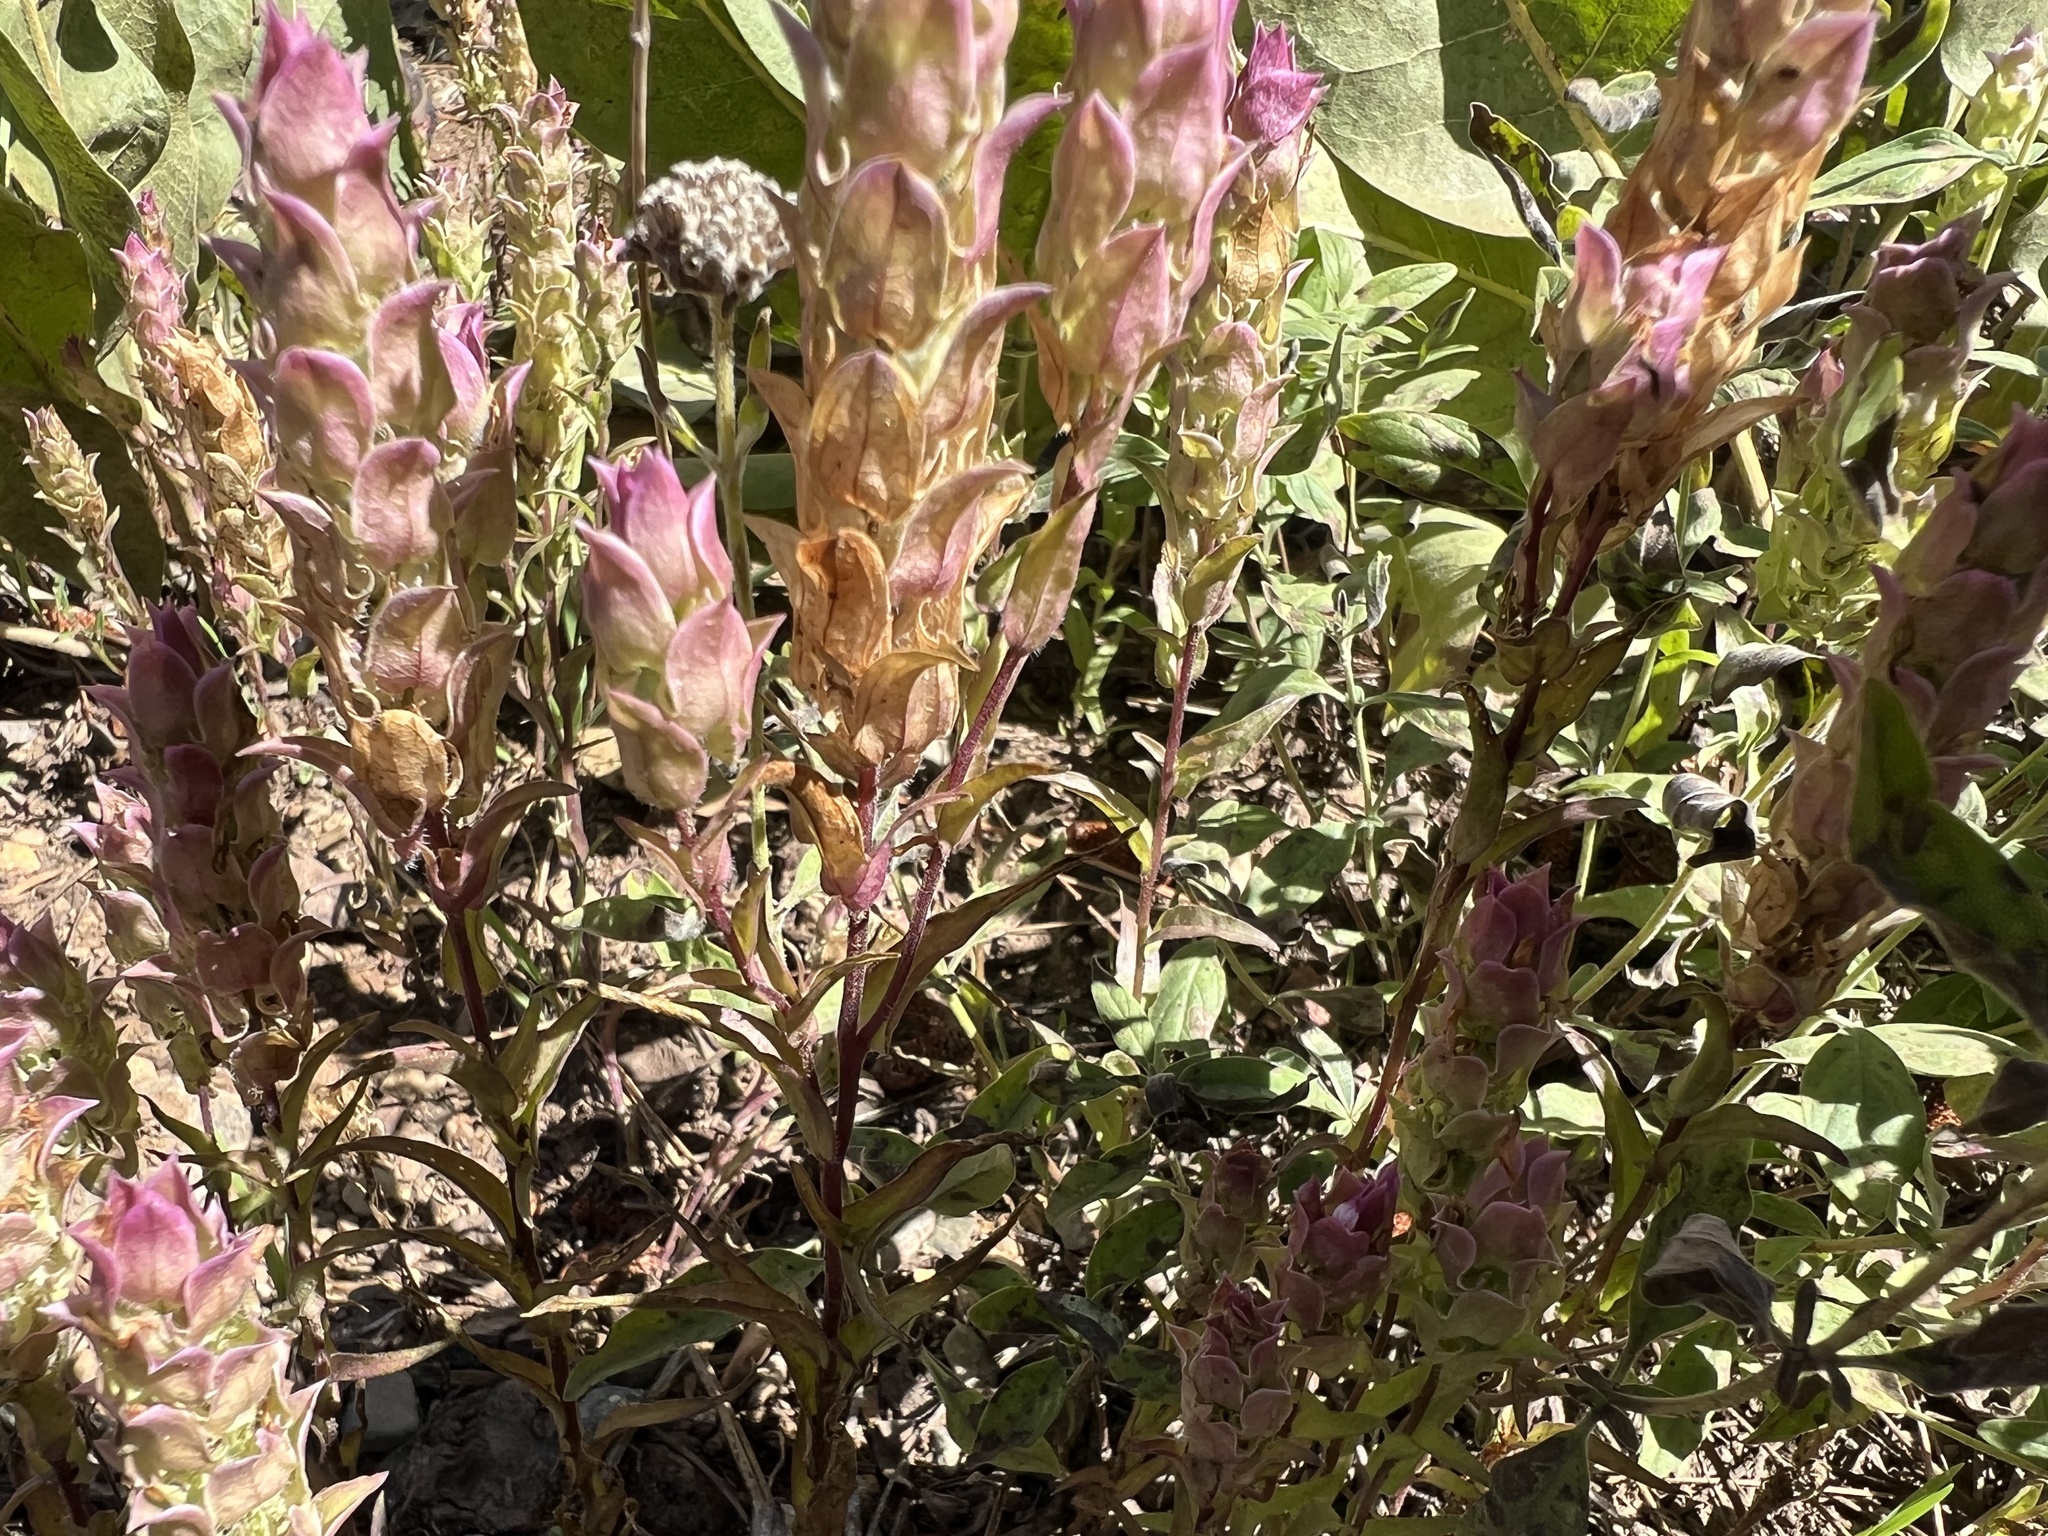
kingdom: Plantae
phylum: Tracheophyta
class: Magnoliopsida
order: Lamiales
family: Orobanchaceae
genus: Orthocarpus
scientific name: Orthocarpus cuspidatus
